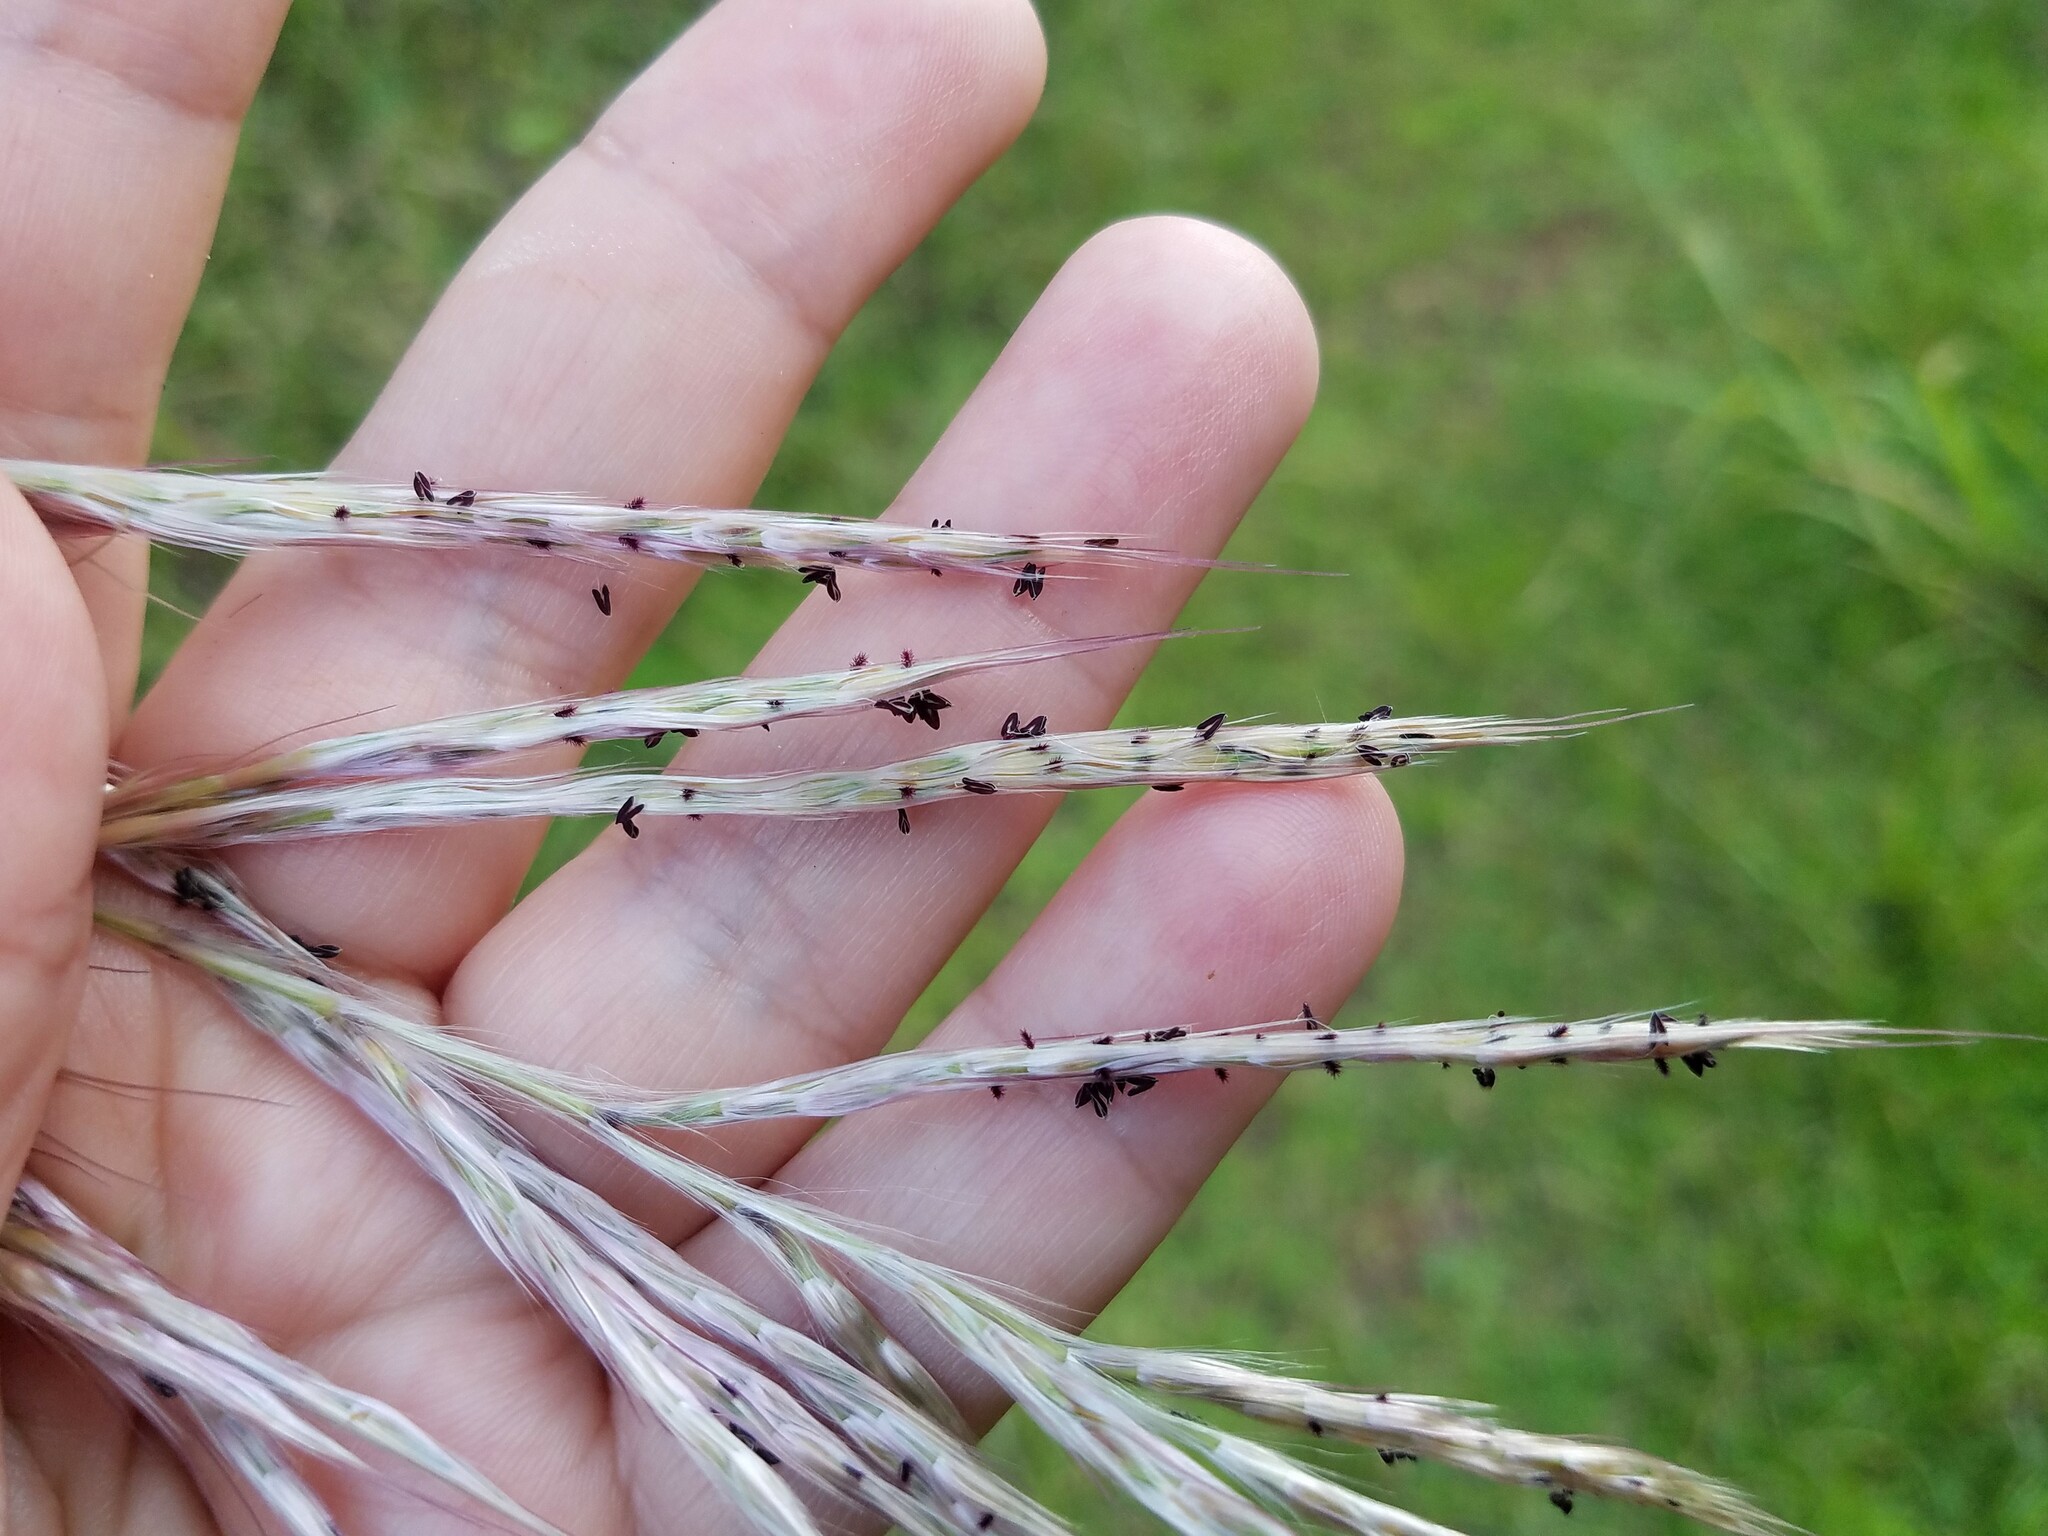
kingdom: Plantae
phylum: Tracheophyta
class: Liliopsida
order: Poales
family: Poaceae
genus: Erianthus
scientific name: Erianthus giganteus
